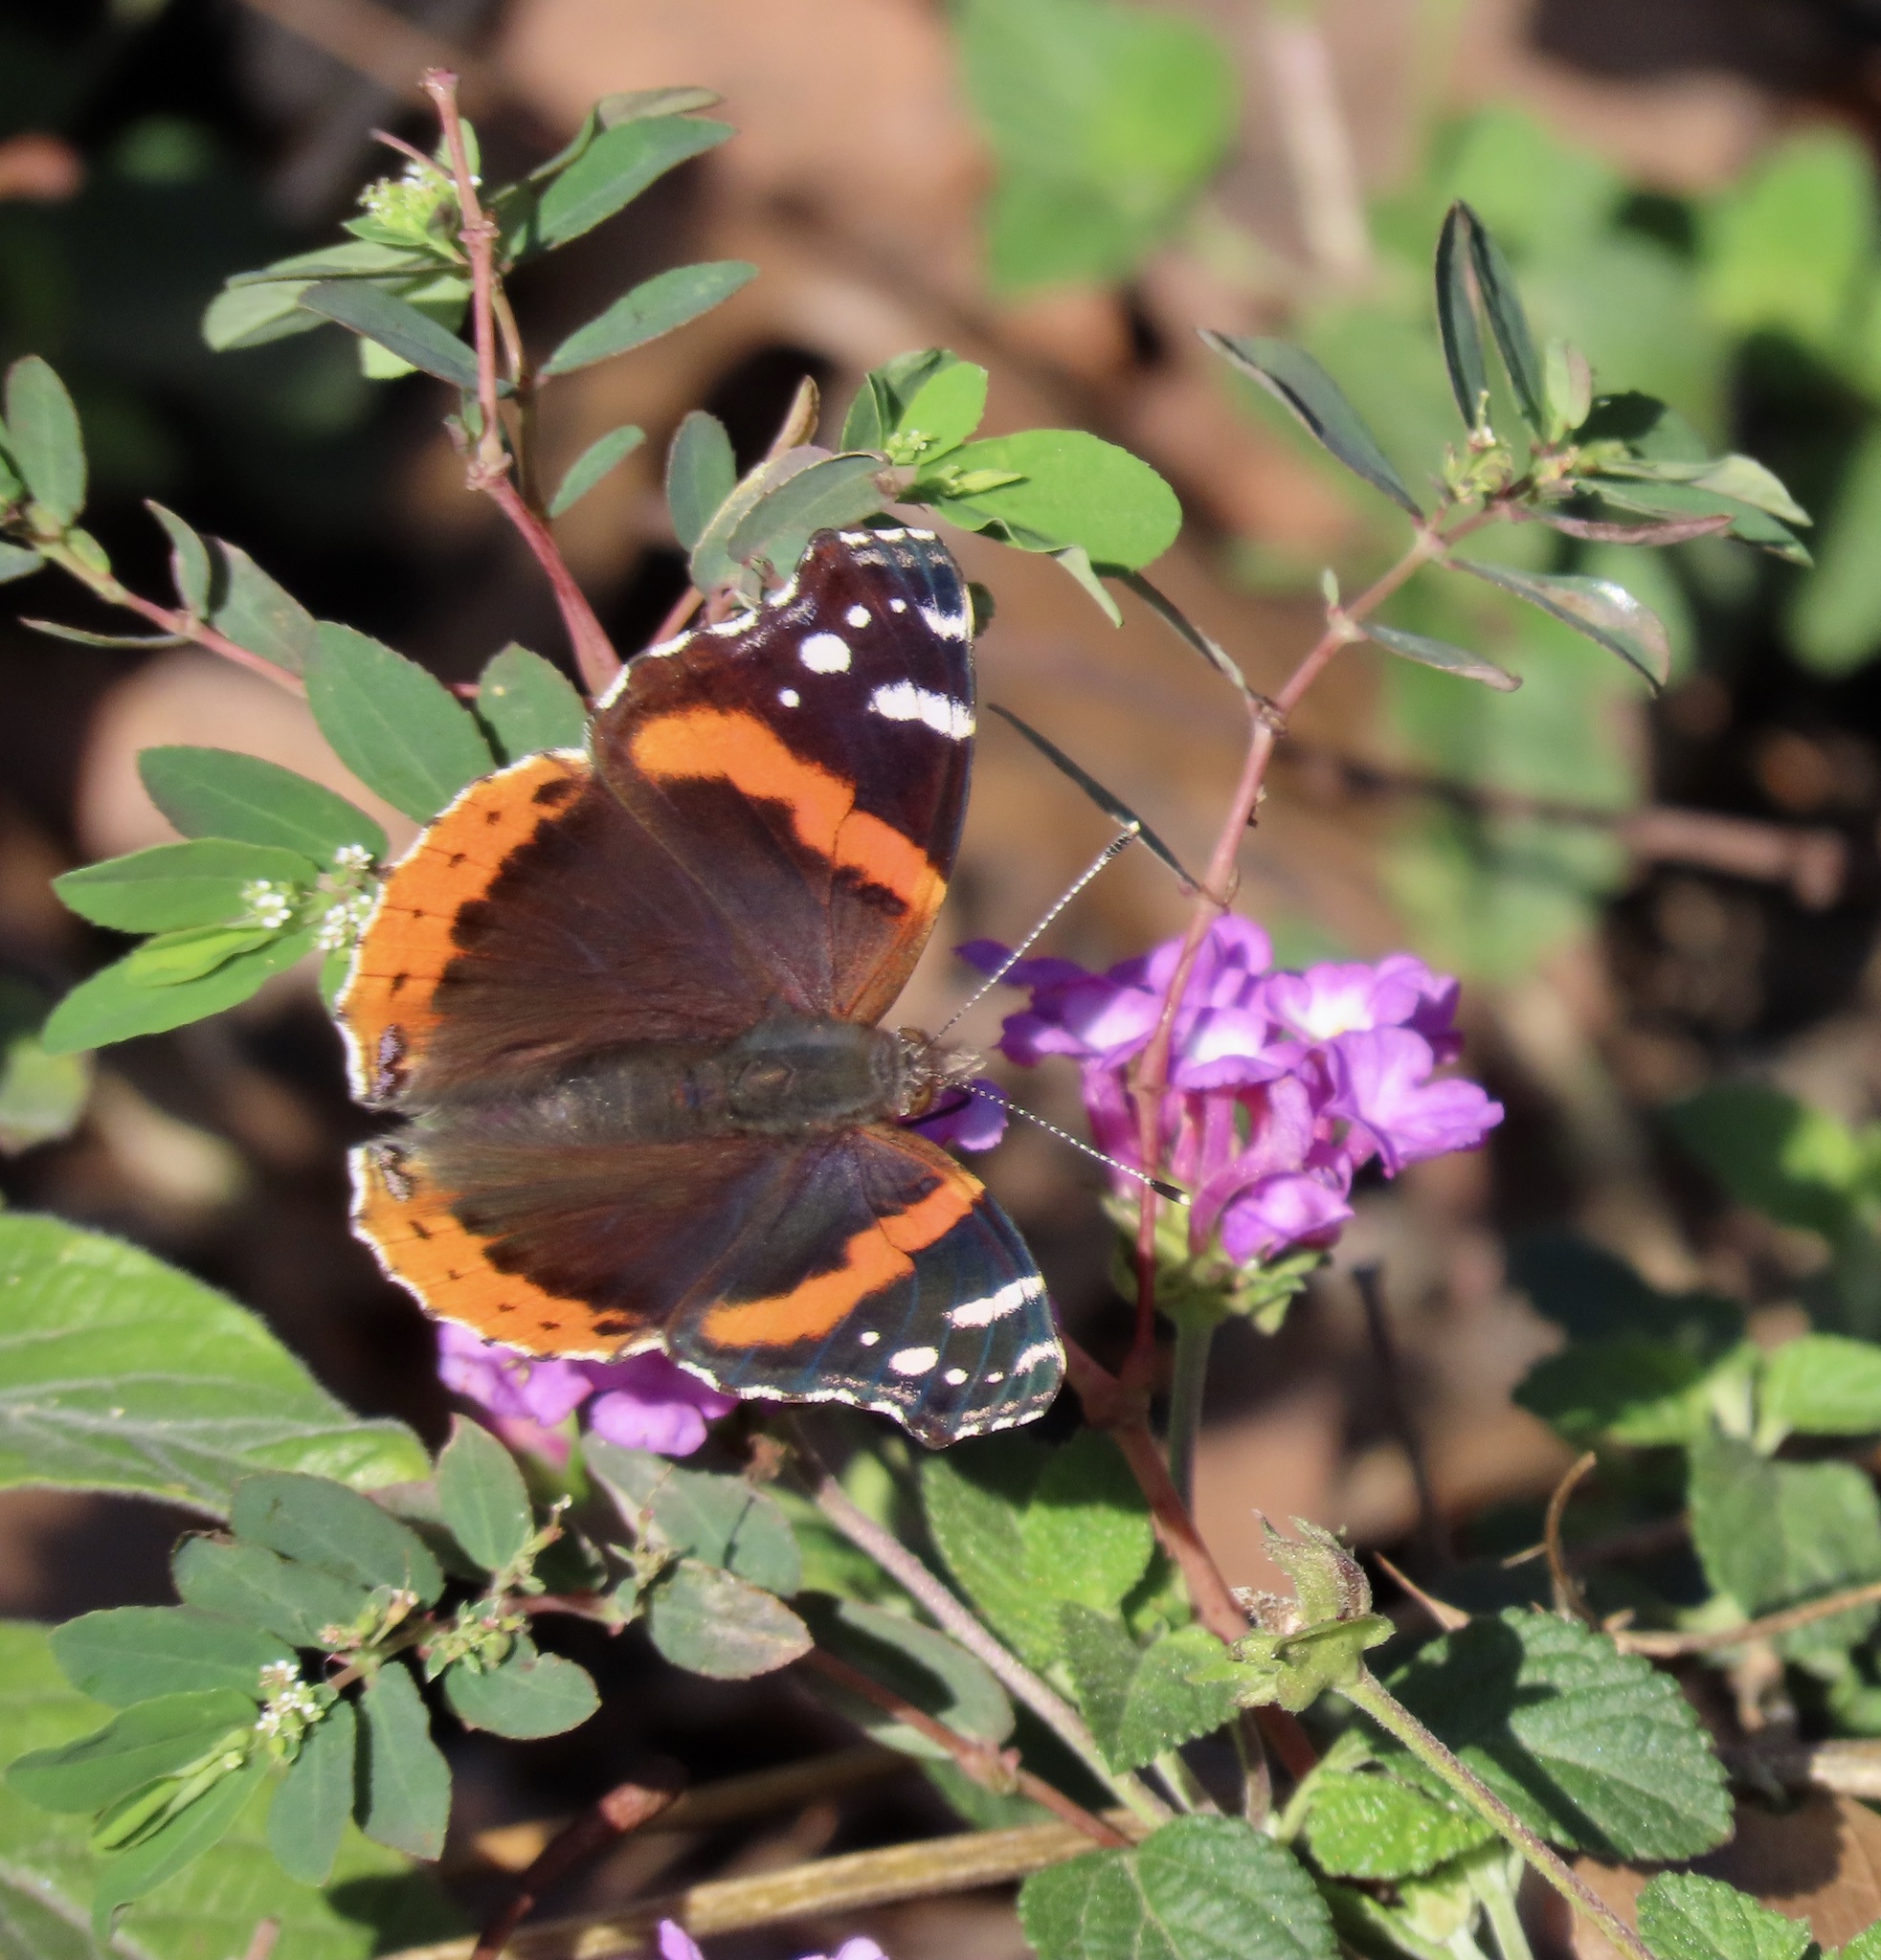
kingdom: Animalia
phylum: Arthropoda
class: Insecta
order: Lepidoptera
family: Nymphalidae
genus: Vanessa
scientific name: Vanessa atalanta
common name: Red admiral
